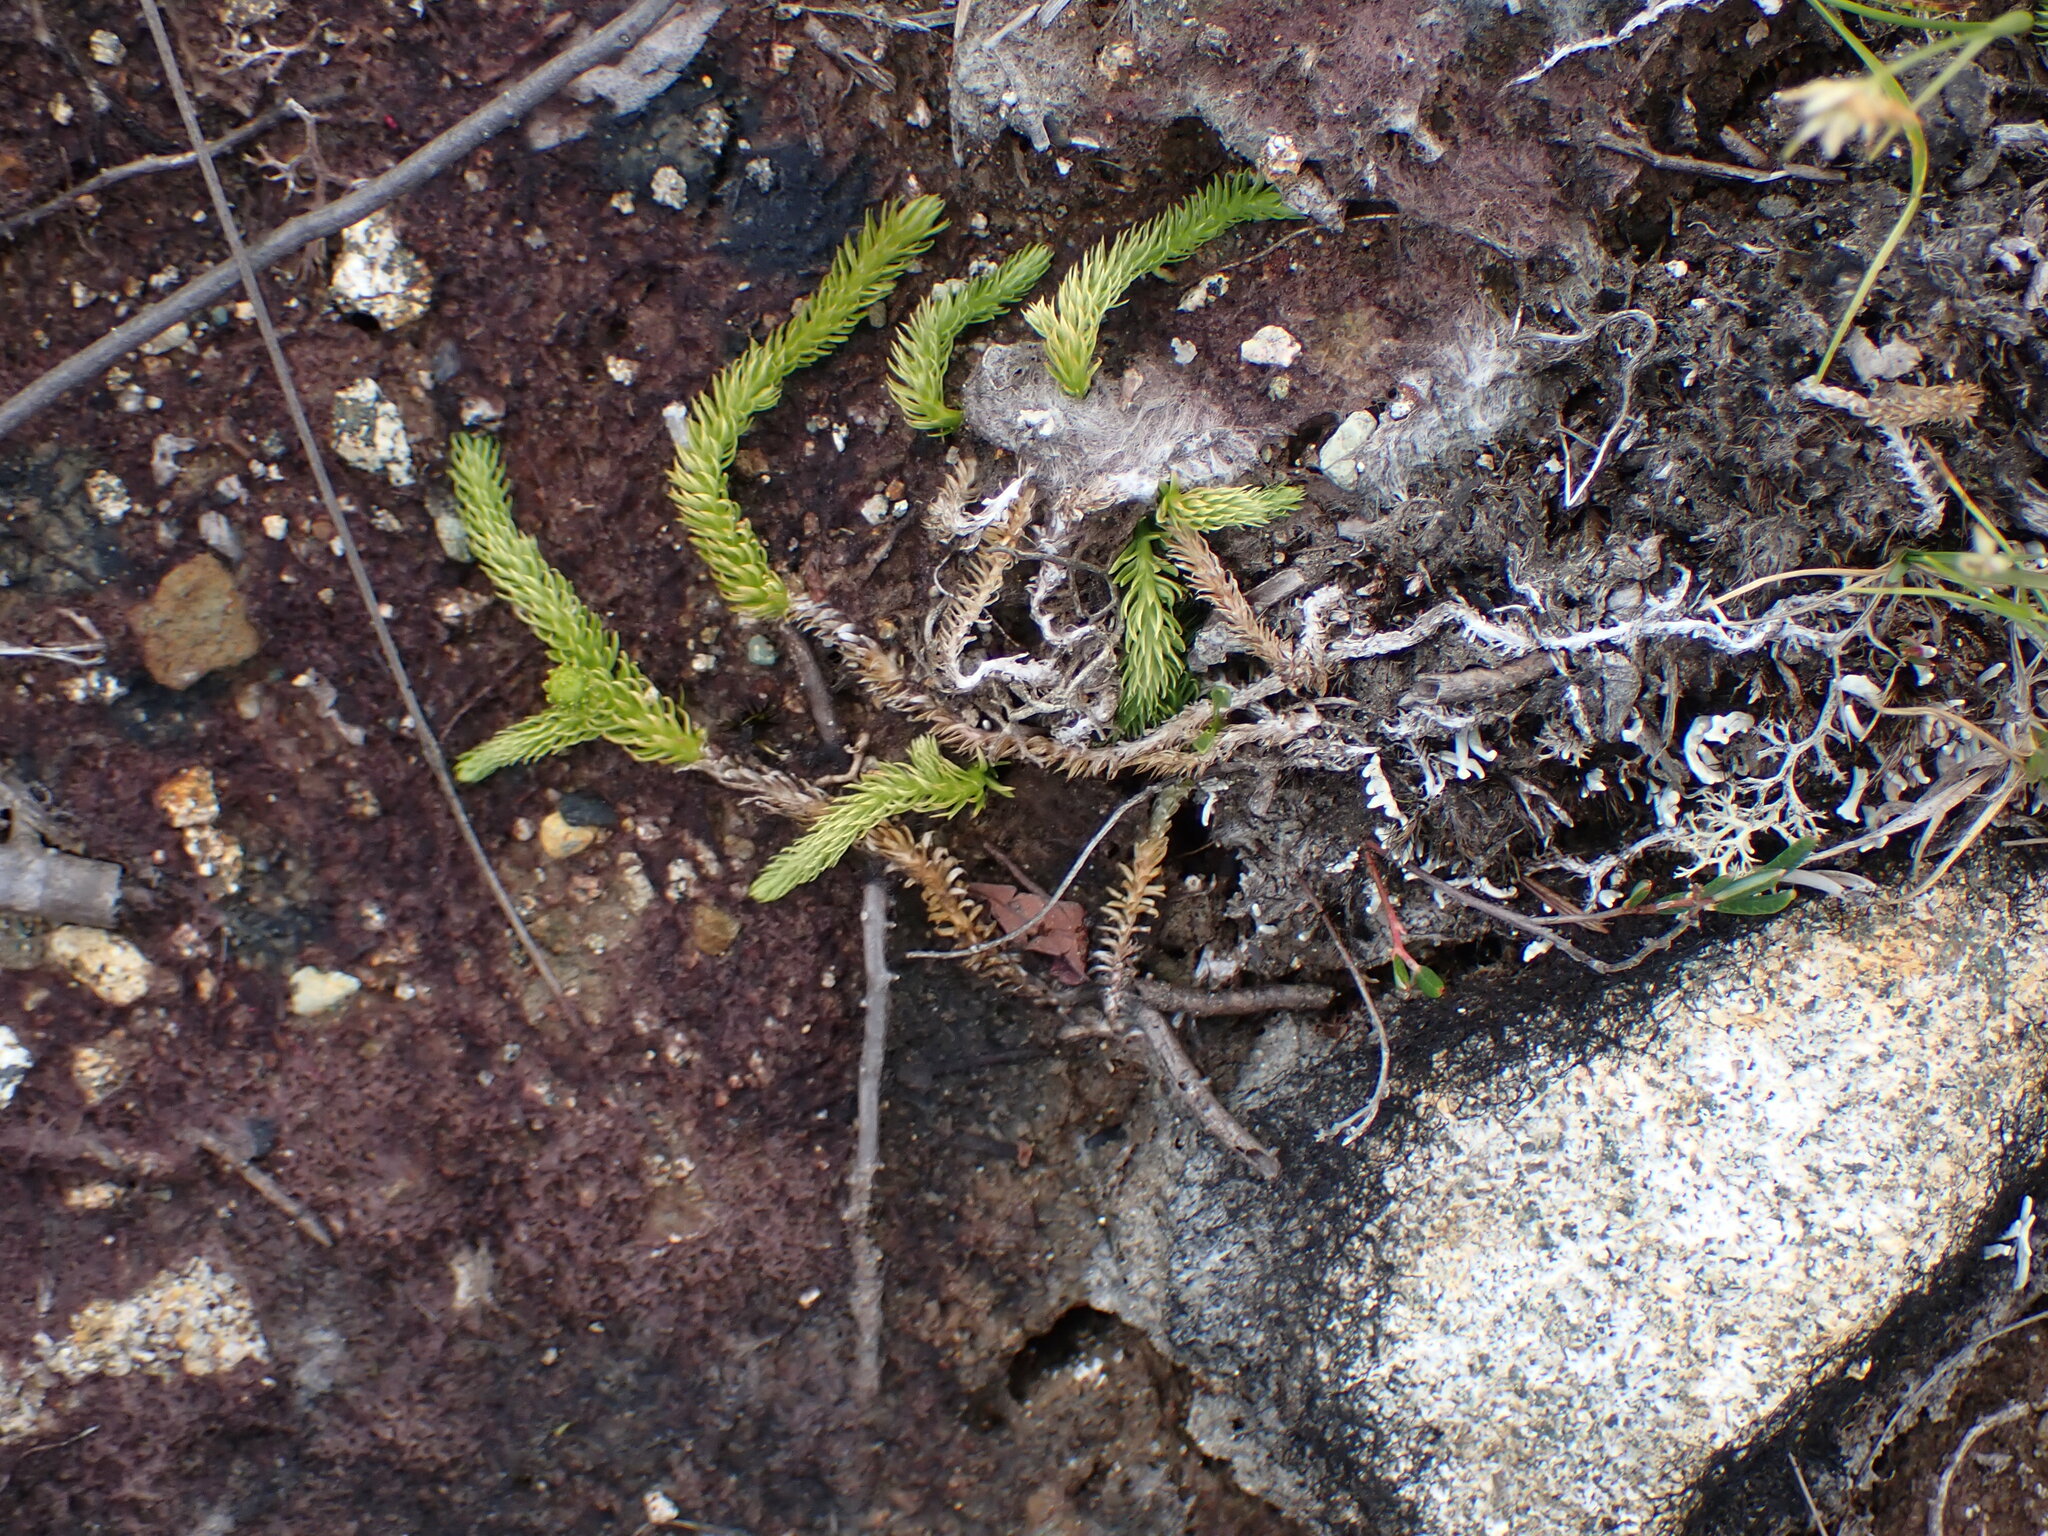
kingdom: Plantae
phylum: Tracheophyta
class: Lycopodiopsida
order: Lycopodiales
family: Lycopodiaceae
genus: Lycopodiella
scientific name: Lycopodiella inundata
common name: Marsh clubmoss
